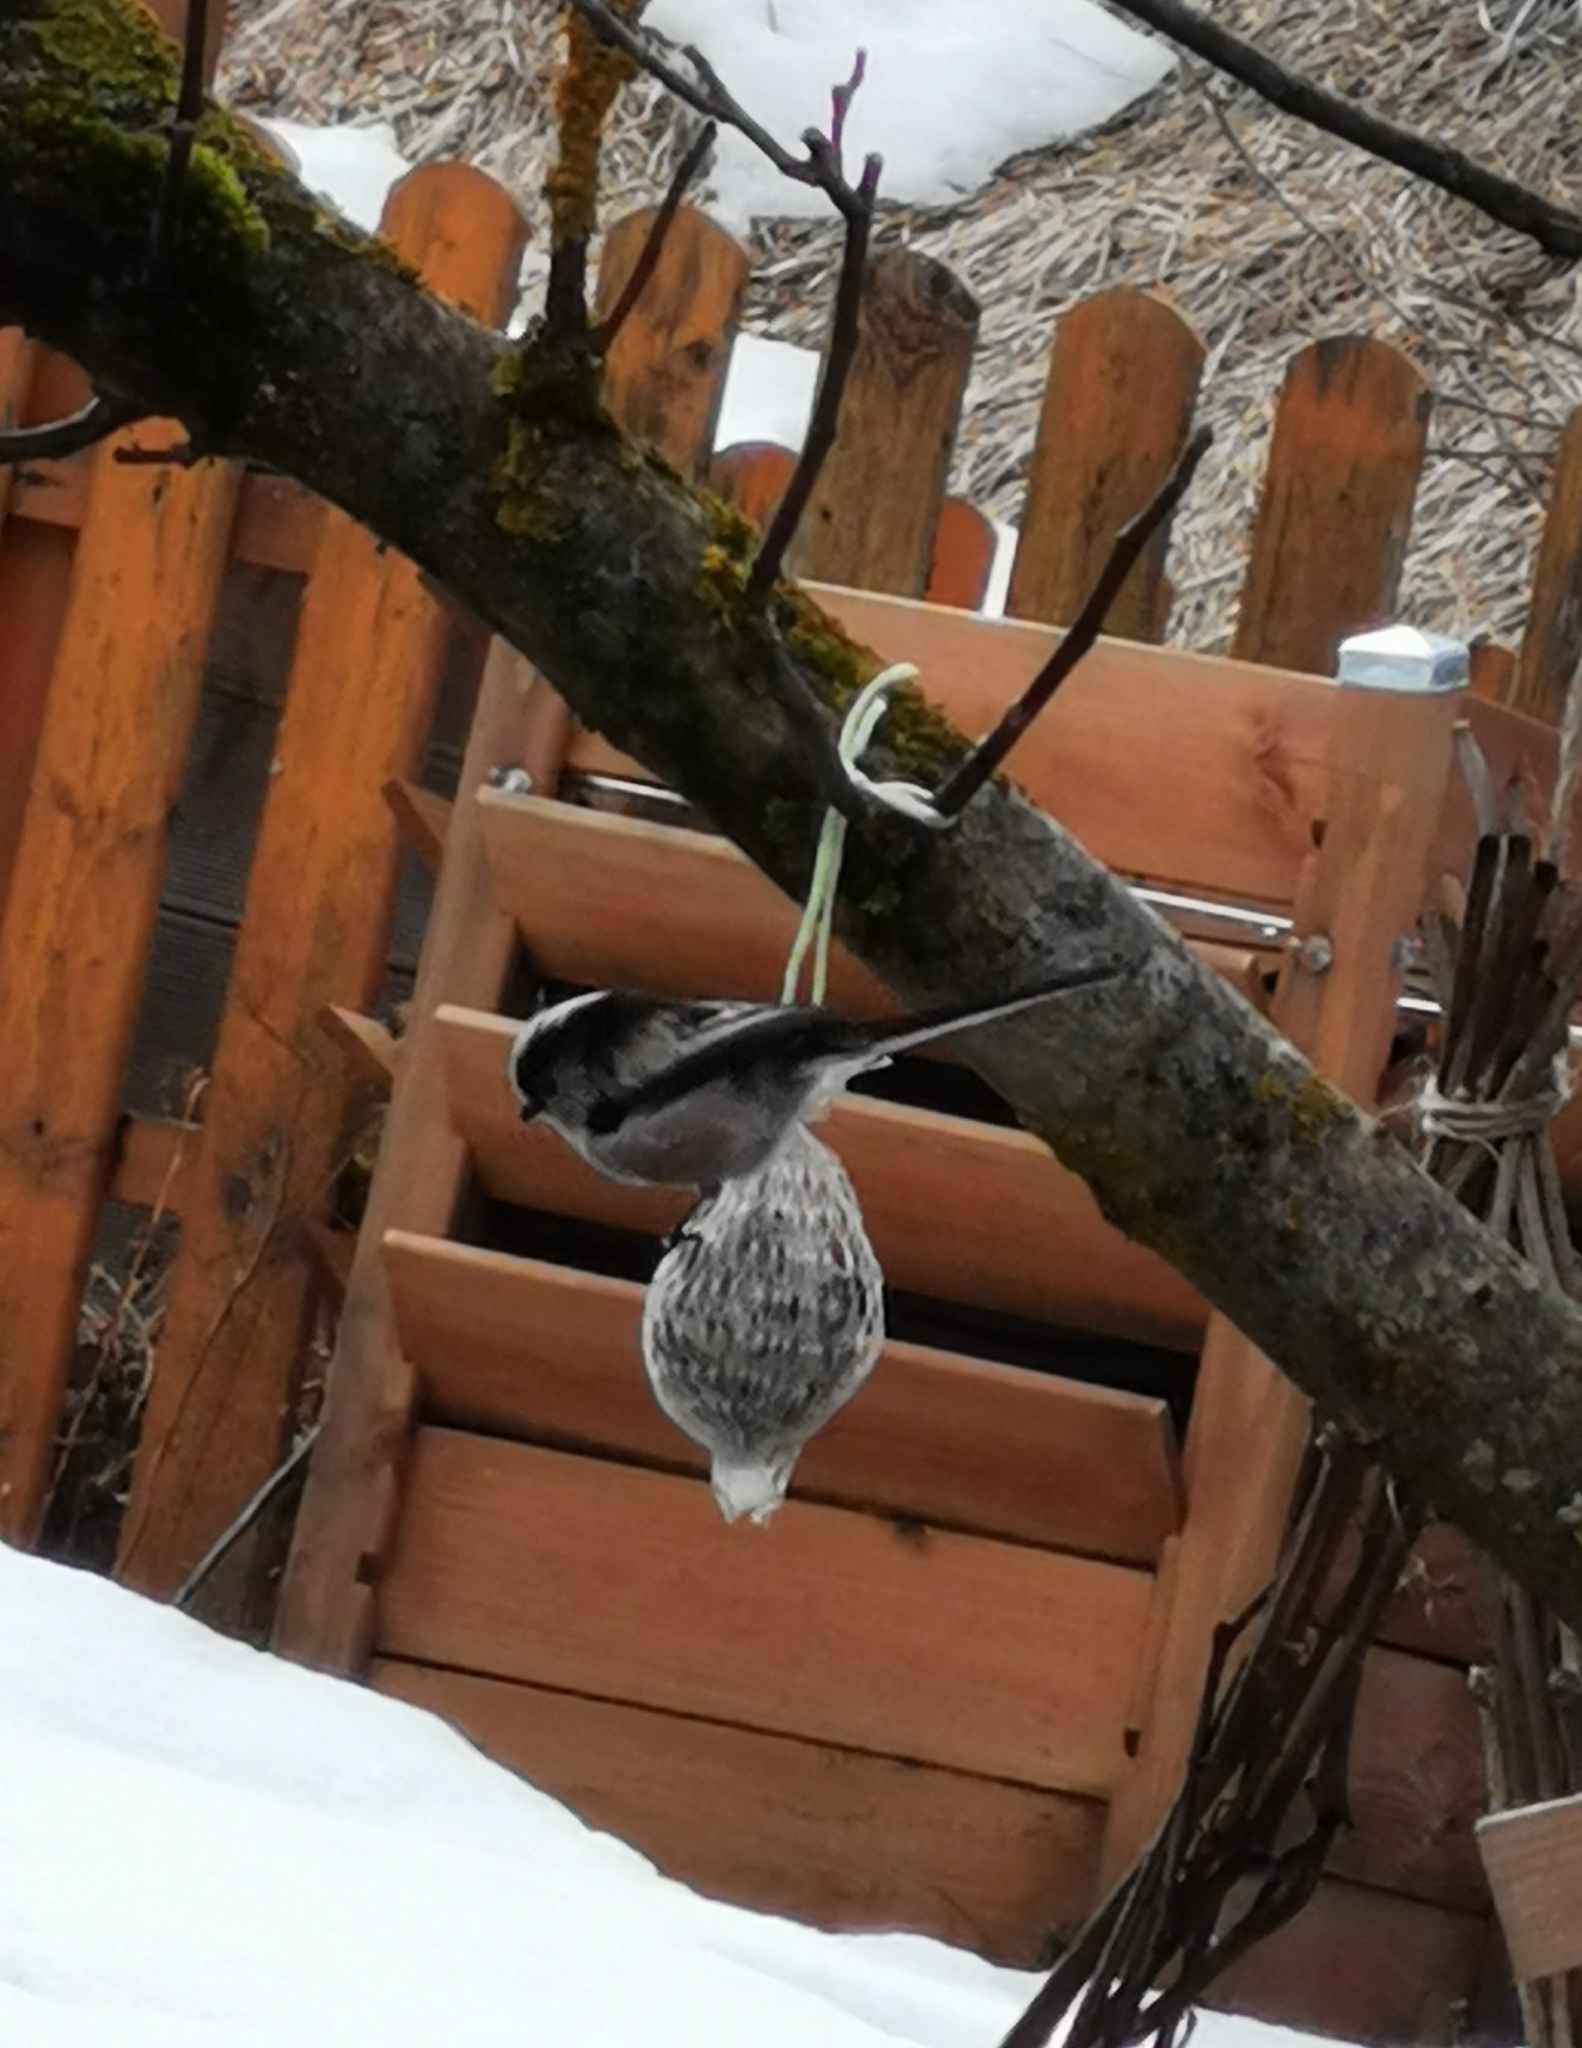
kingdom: Animalia
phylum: Chordata
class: Aves
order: Passeriformes
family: Aegithalidae
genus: Aegithalos
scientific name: Aegithalos caudatus
